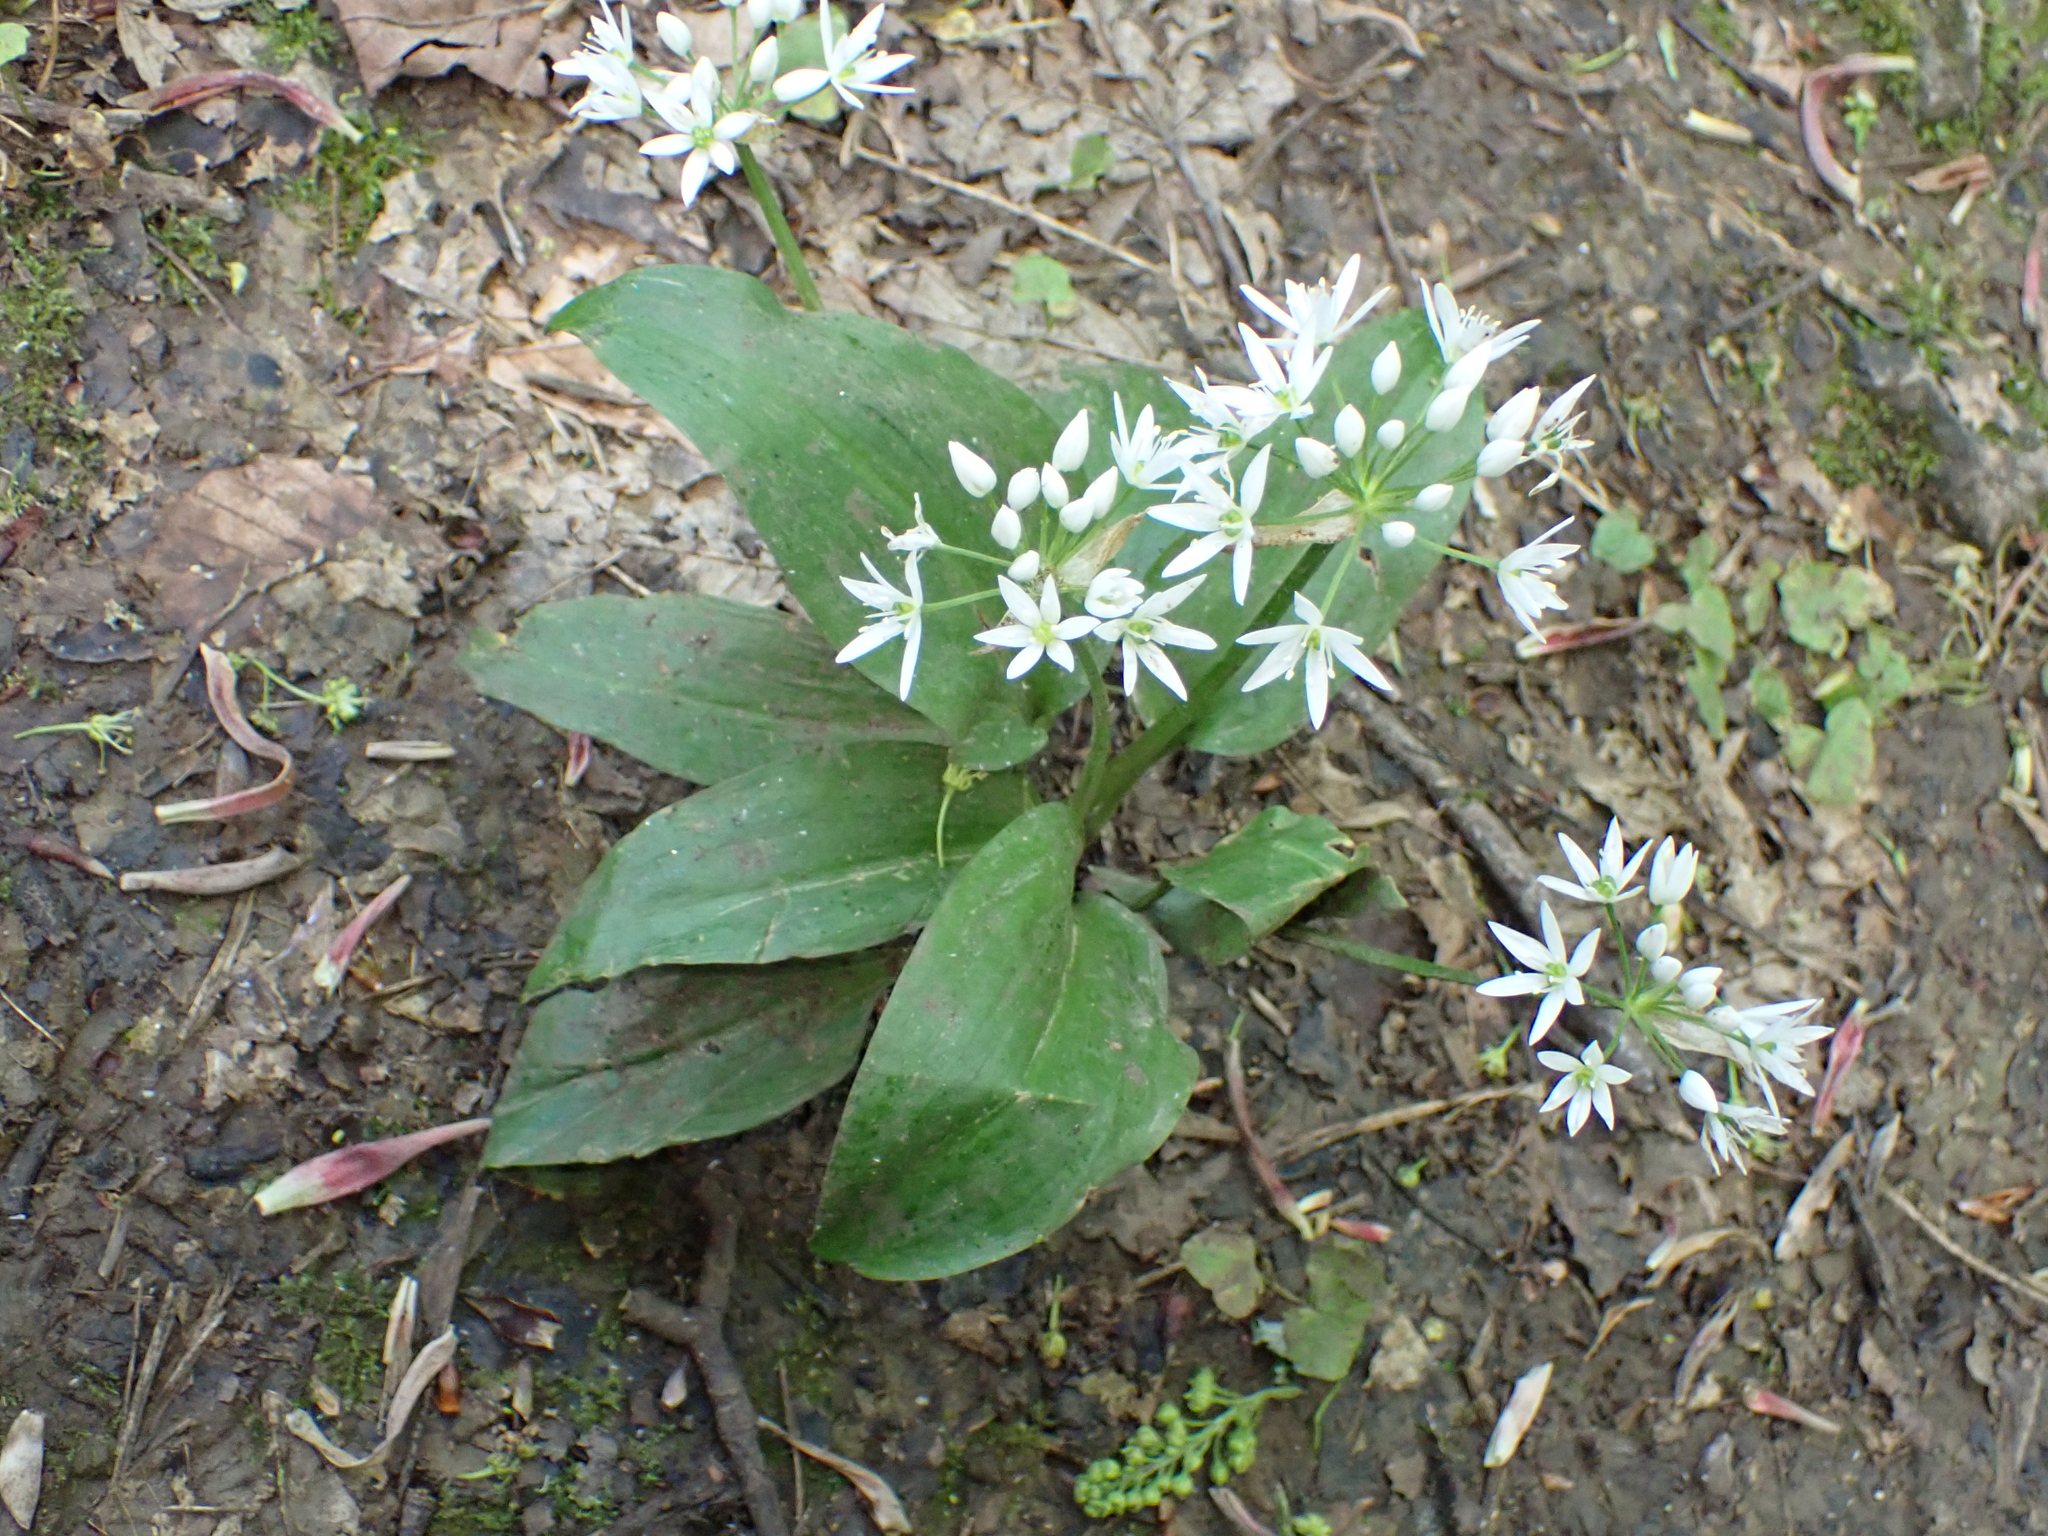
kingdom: Plantae
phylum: Tracheophyta
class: Liliopsida
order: Asparagales
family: Amaryllidaceae
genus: Allium
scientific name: Allium ursinum
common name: Ramsons
